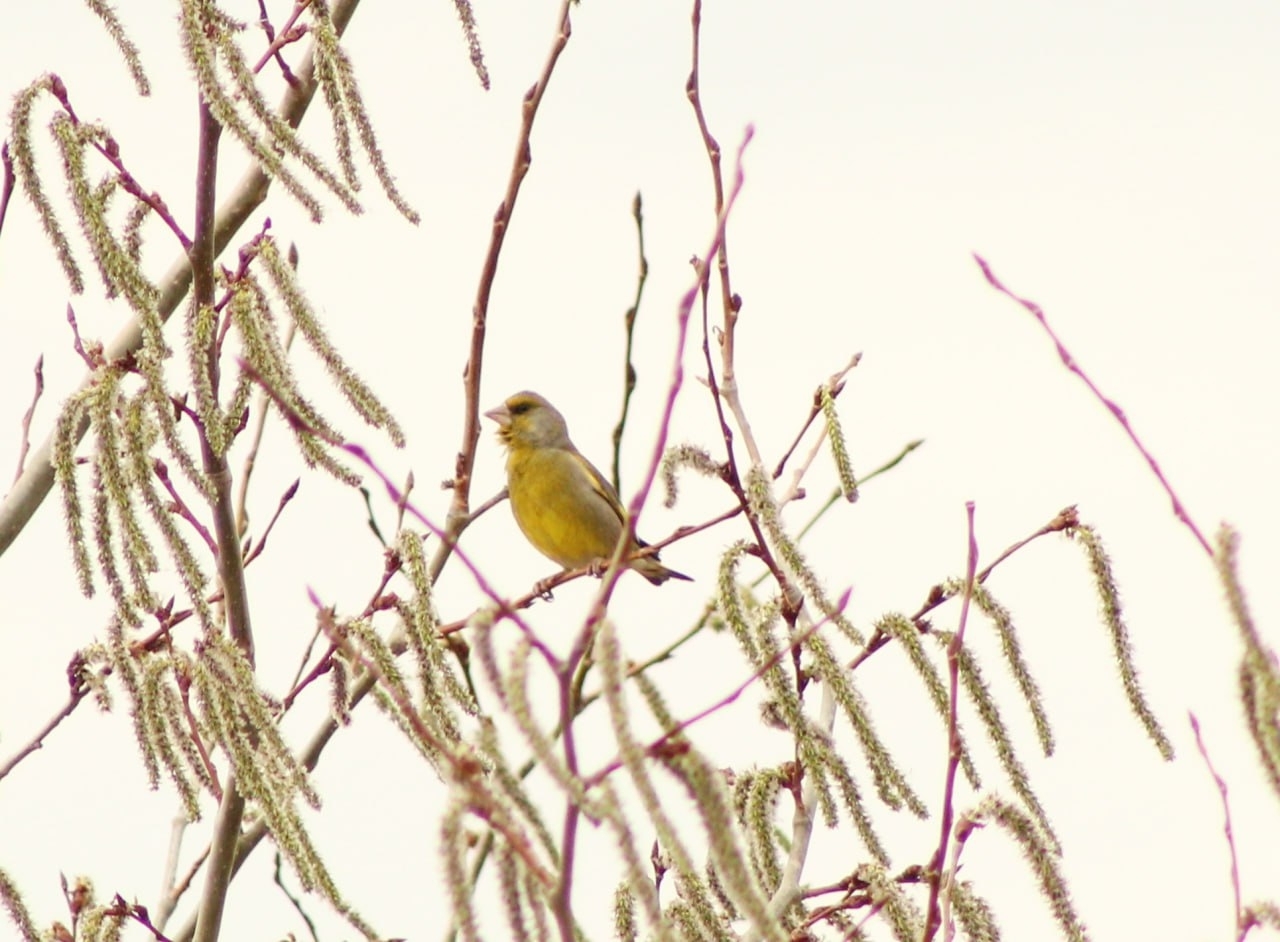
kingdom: Plantae
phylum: Tracheophyta
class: Liliopsida
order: Poales
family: Poaceae
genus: Chloris
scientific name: Chloris chloris
